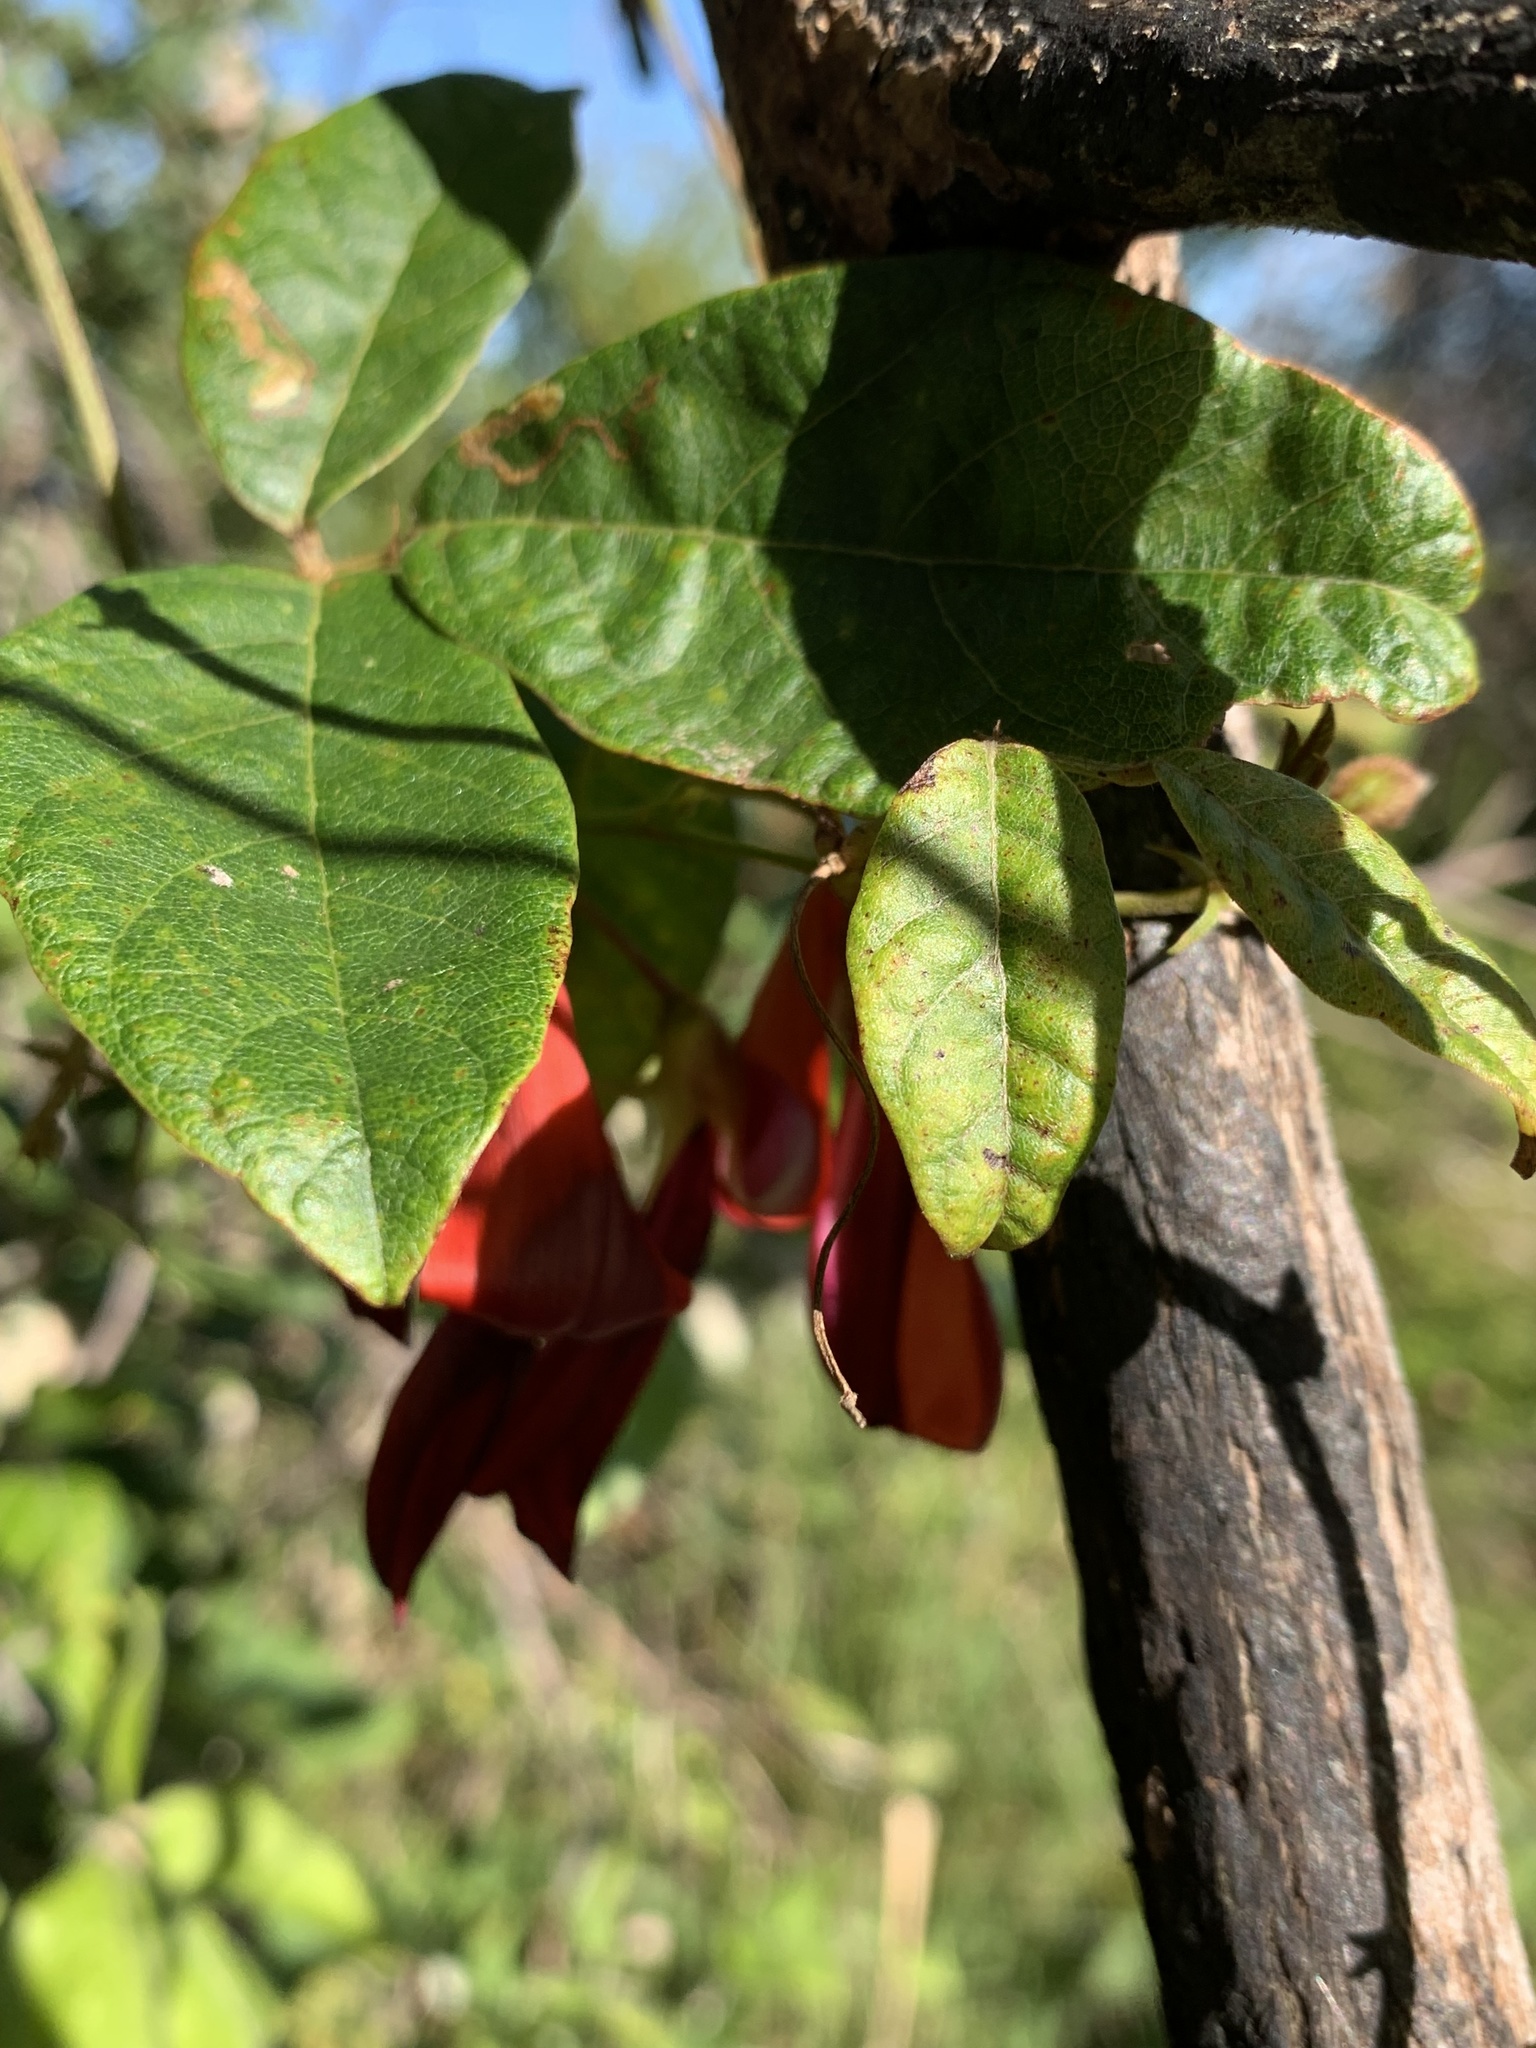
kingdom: Plantae
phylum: Tracheophyta
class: Magnoliopsida
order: Fabales
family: Fabaceae
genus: Kennedia
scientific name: Kennedia rubicunda
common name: Red kennedy-pea
